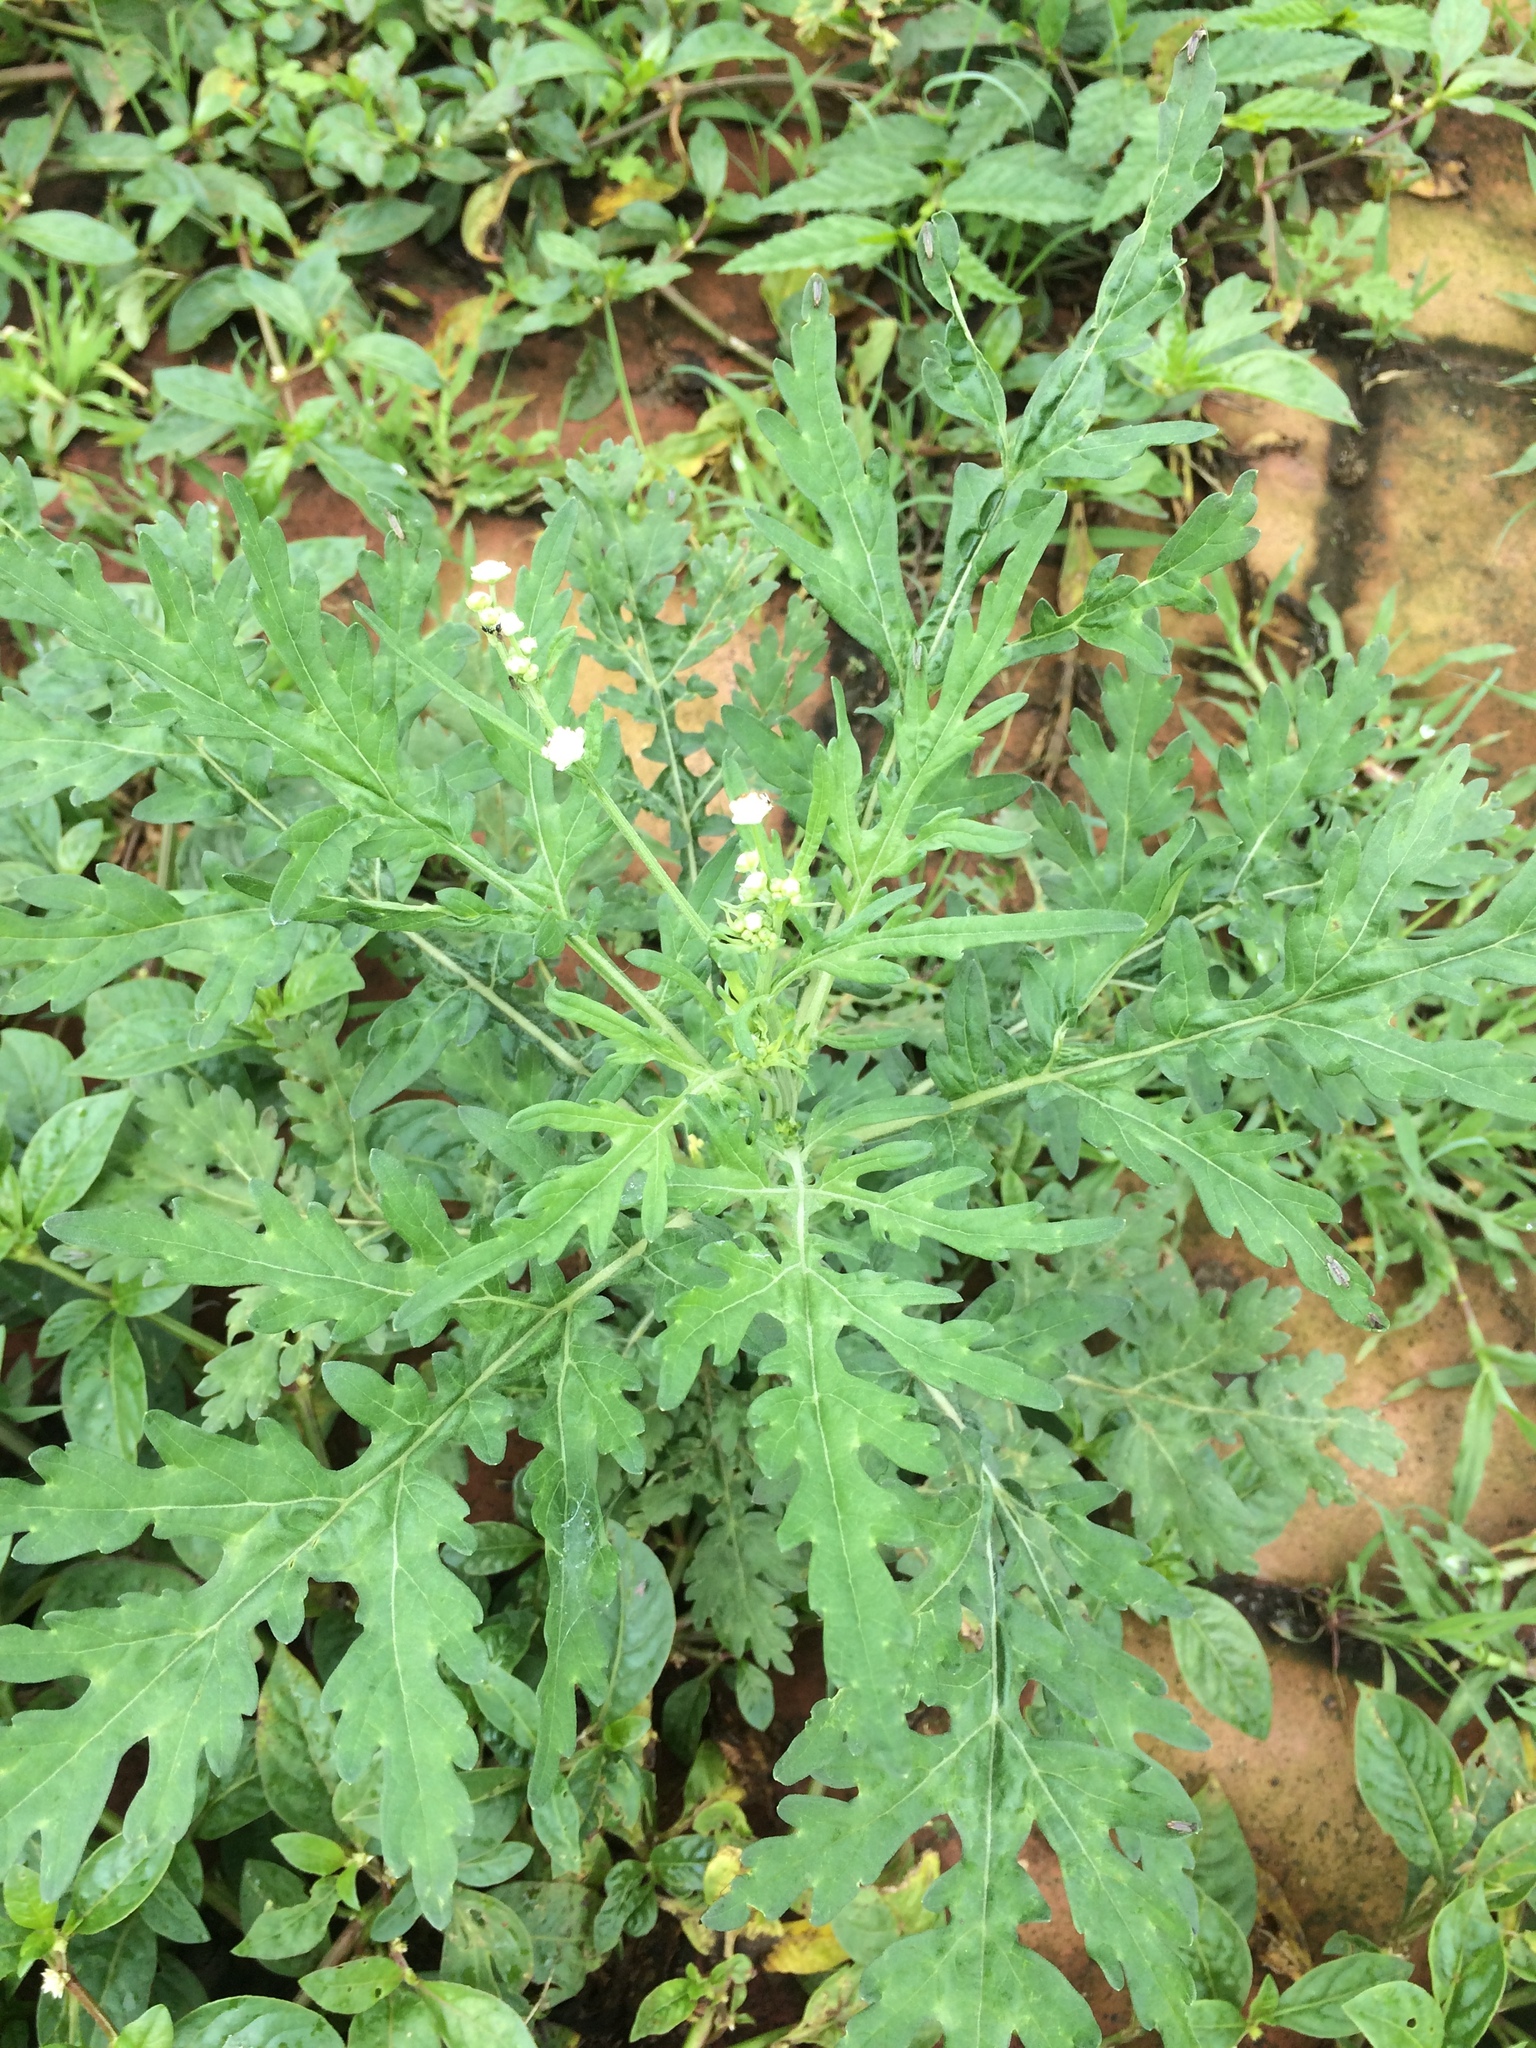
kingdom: Plantae
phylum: Tracheophyta
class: Magnoliopsida
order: Asterales
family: Asteraceae
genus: Parthenium
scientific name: Parthenium hysterophorus
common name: Santa maria feverfew
